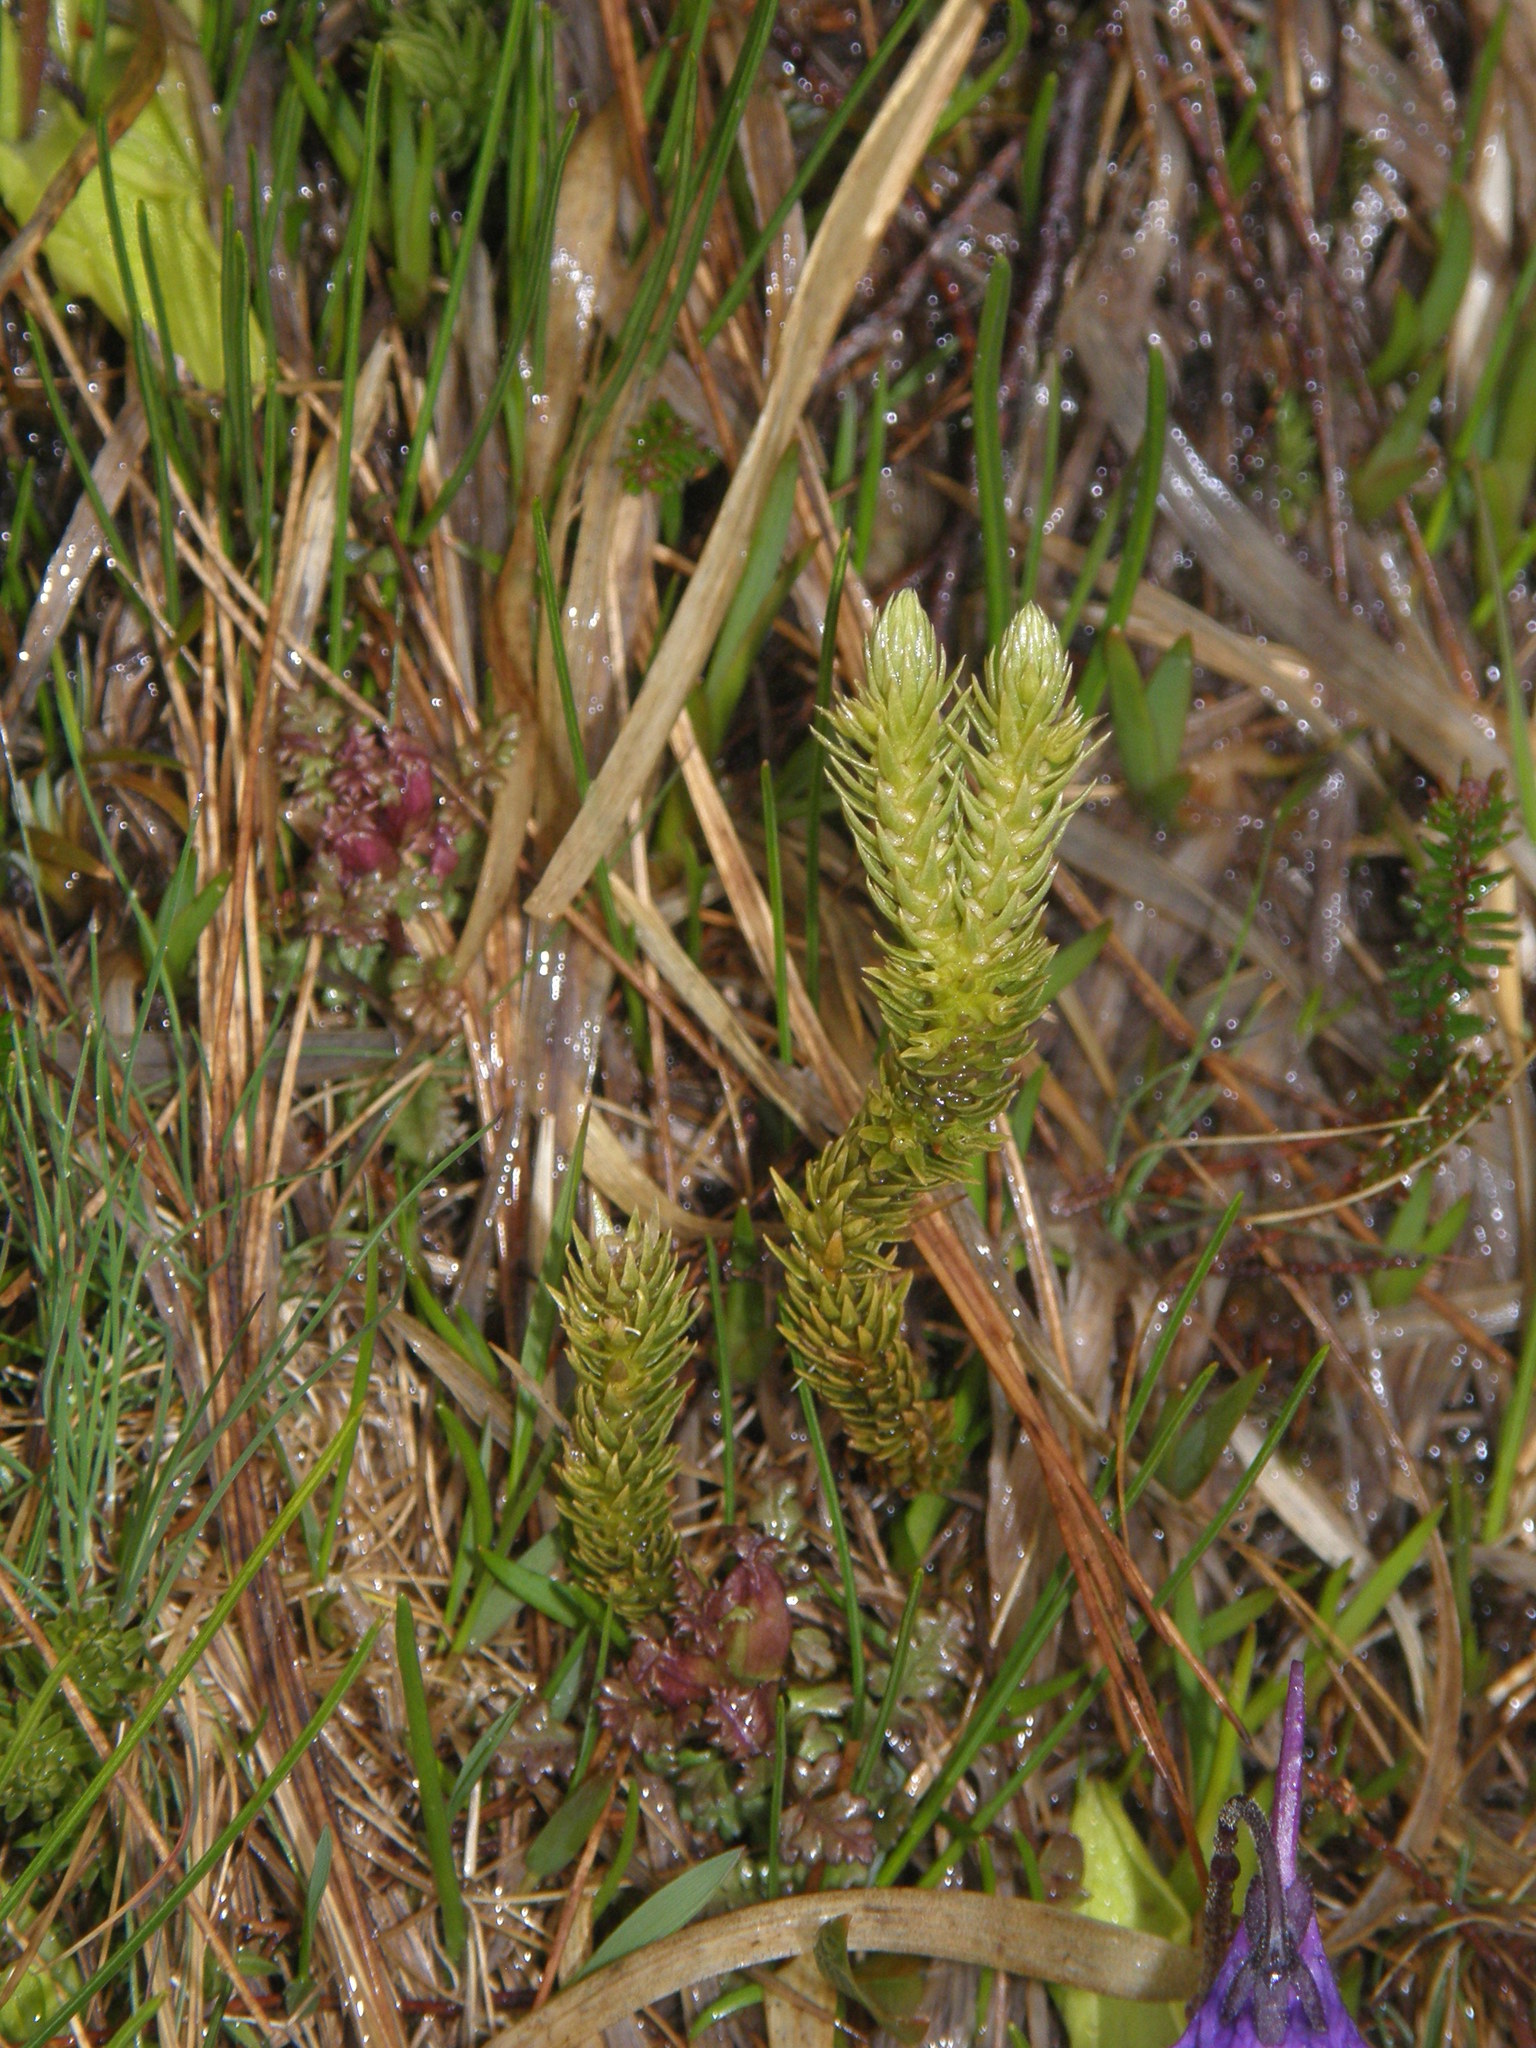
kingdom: Plantae
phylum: Tracheophyta
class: Lycopodiopsida
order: Lycopodiales
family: Lycopodiaceae
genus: Huperzia
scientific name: Huperzia selago
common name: Northern firmoss
